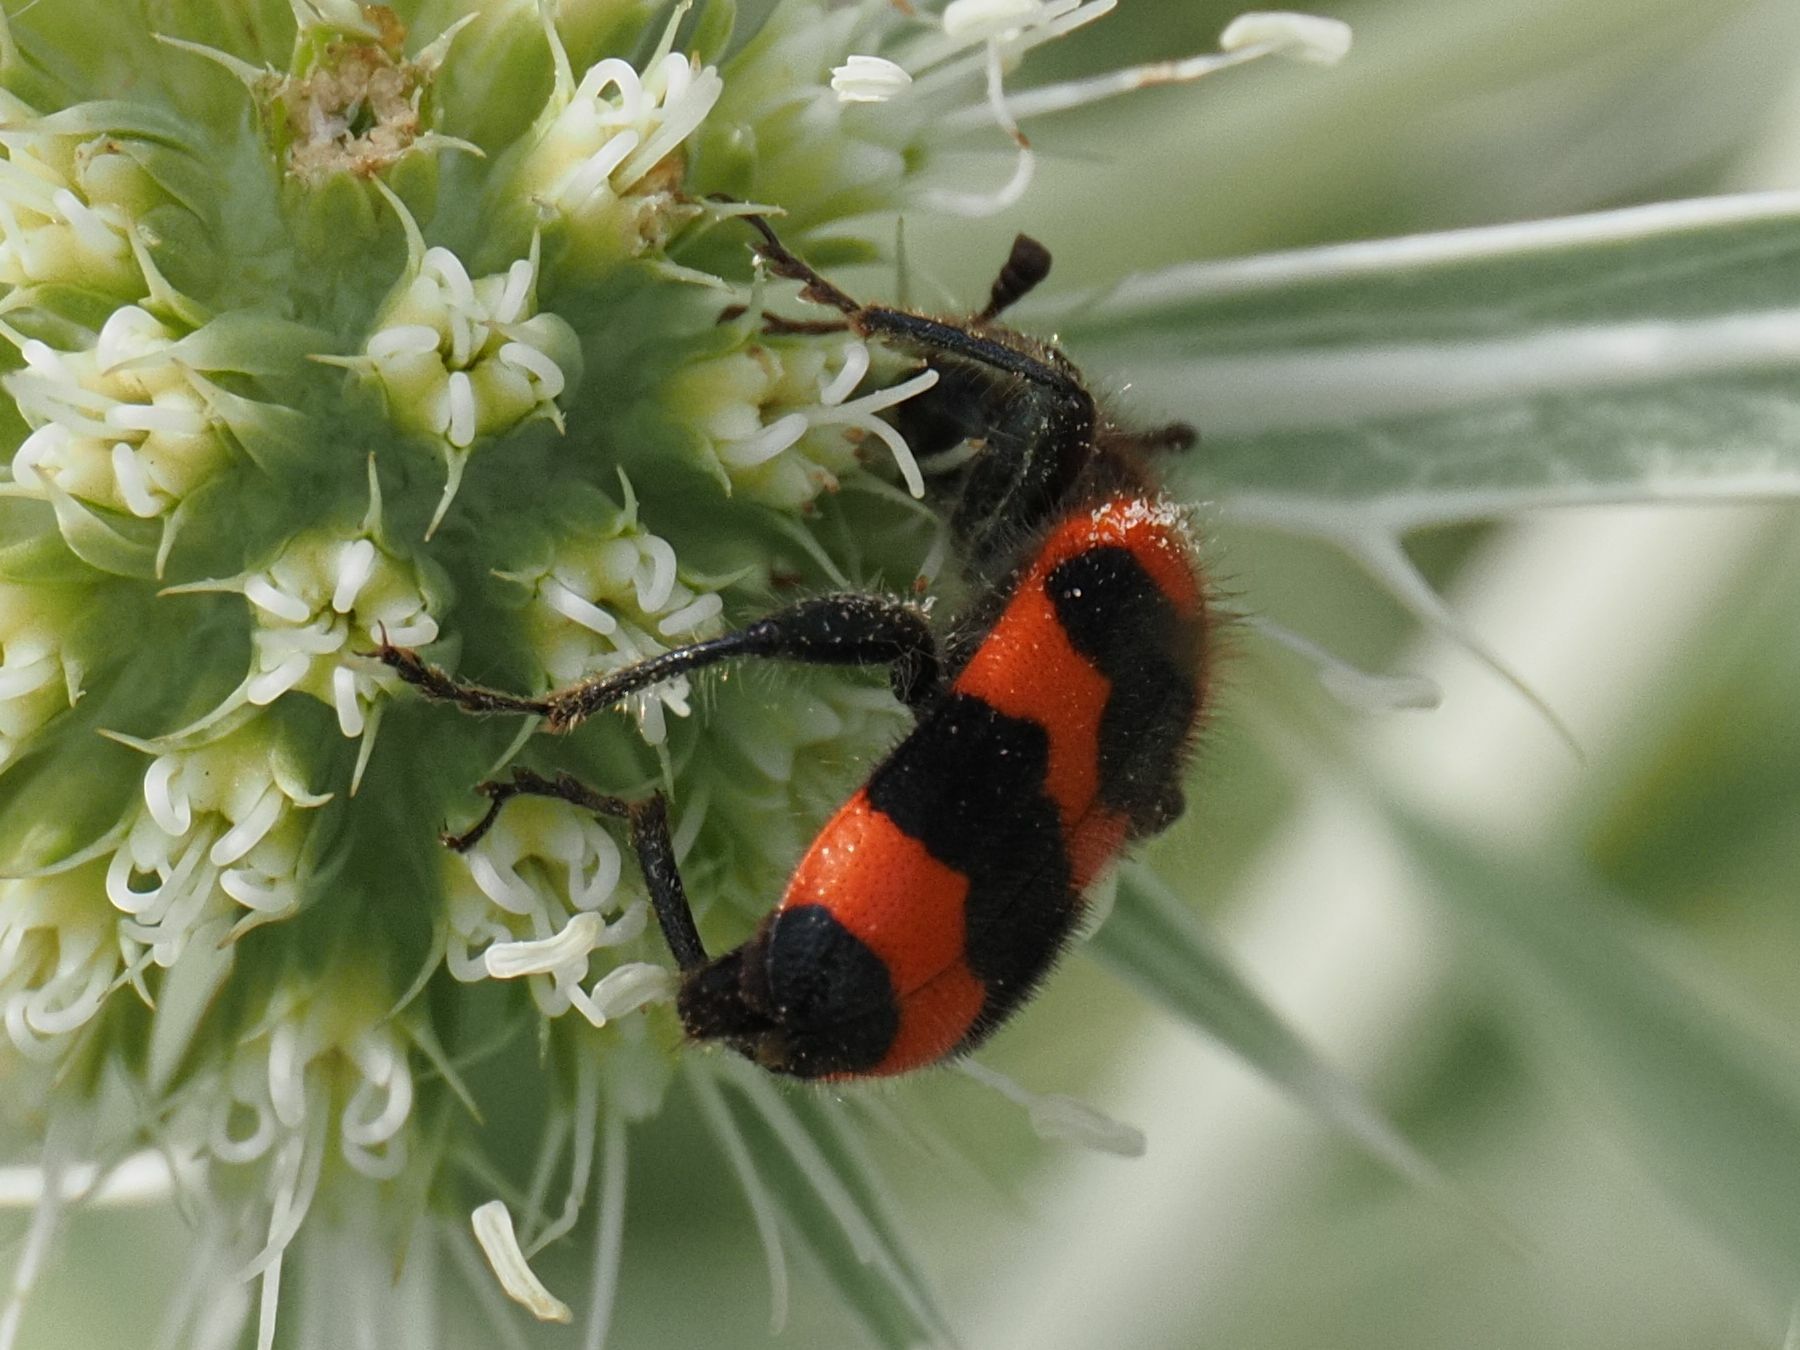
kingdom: Animalia
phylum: Arthropoda
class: Insecta
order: Coleoptera
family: Cleridae
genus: Trichodes
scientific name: Trichodes apiarius
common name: Bee-eating beetle
